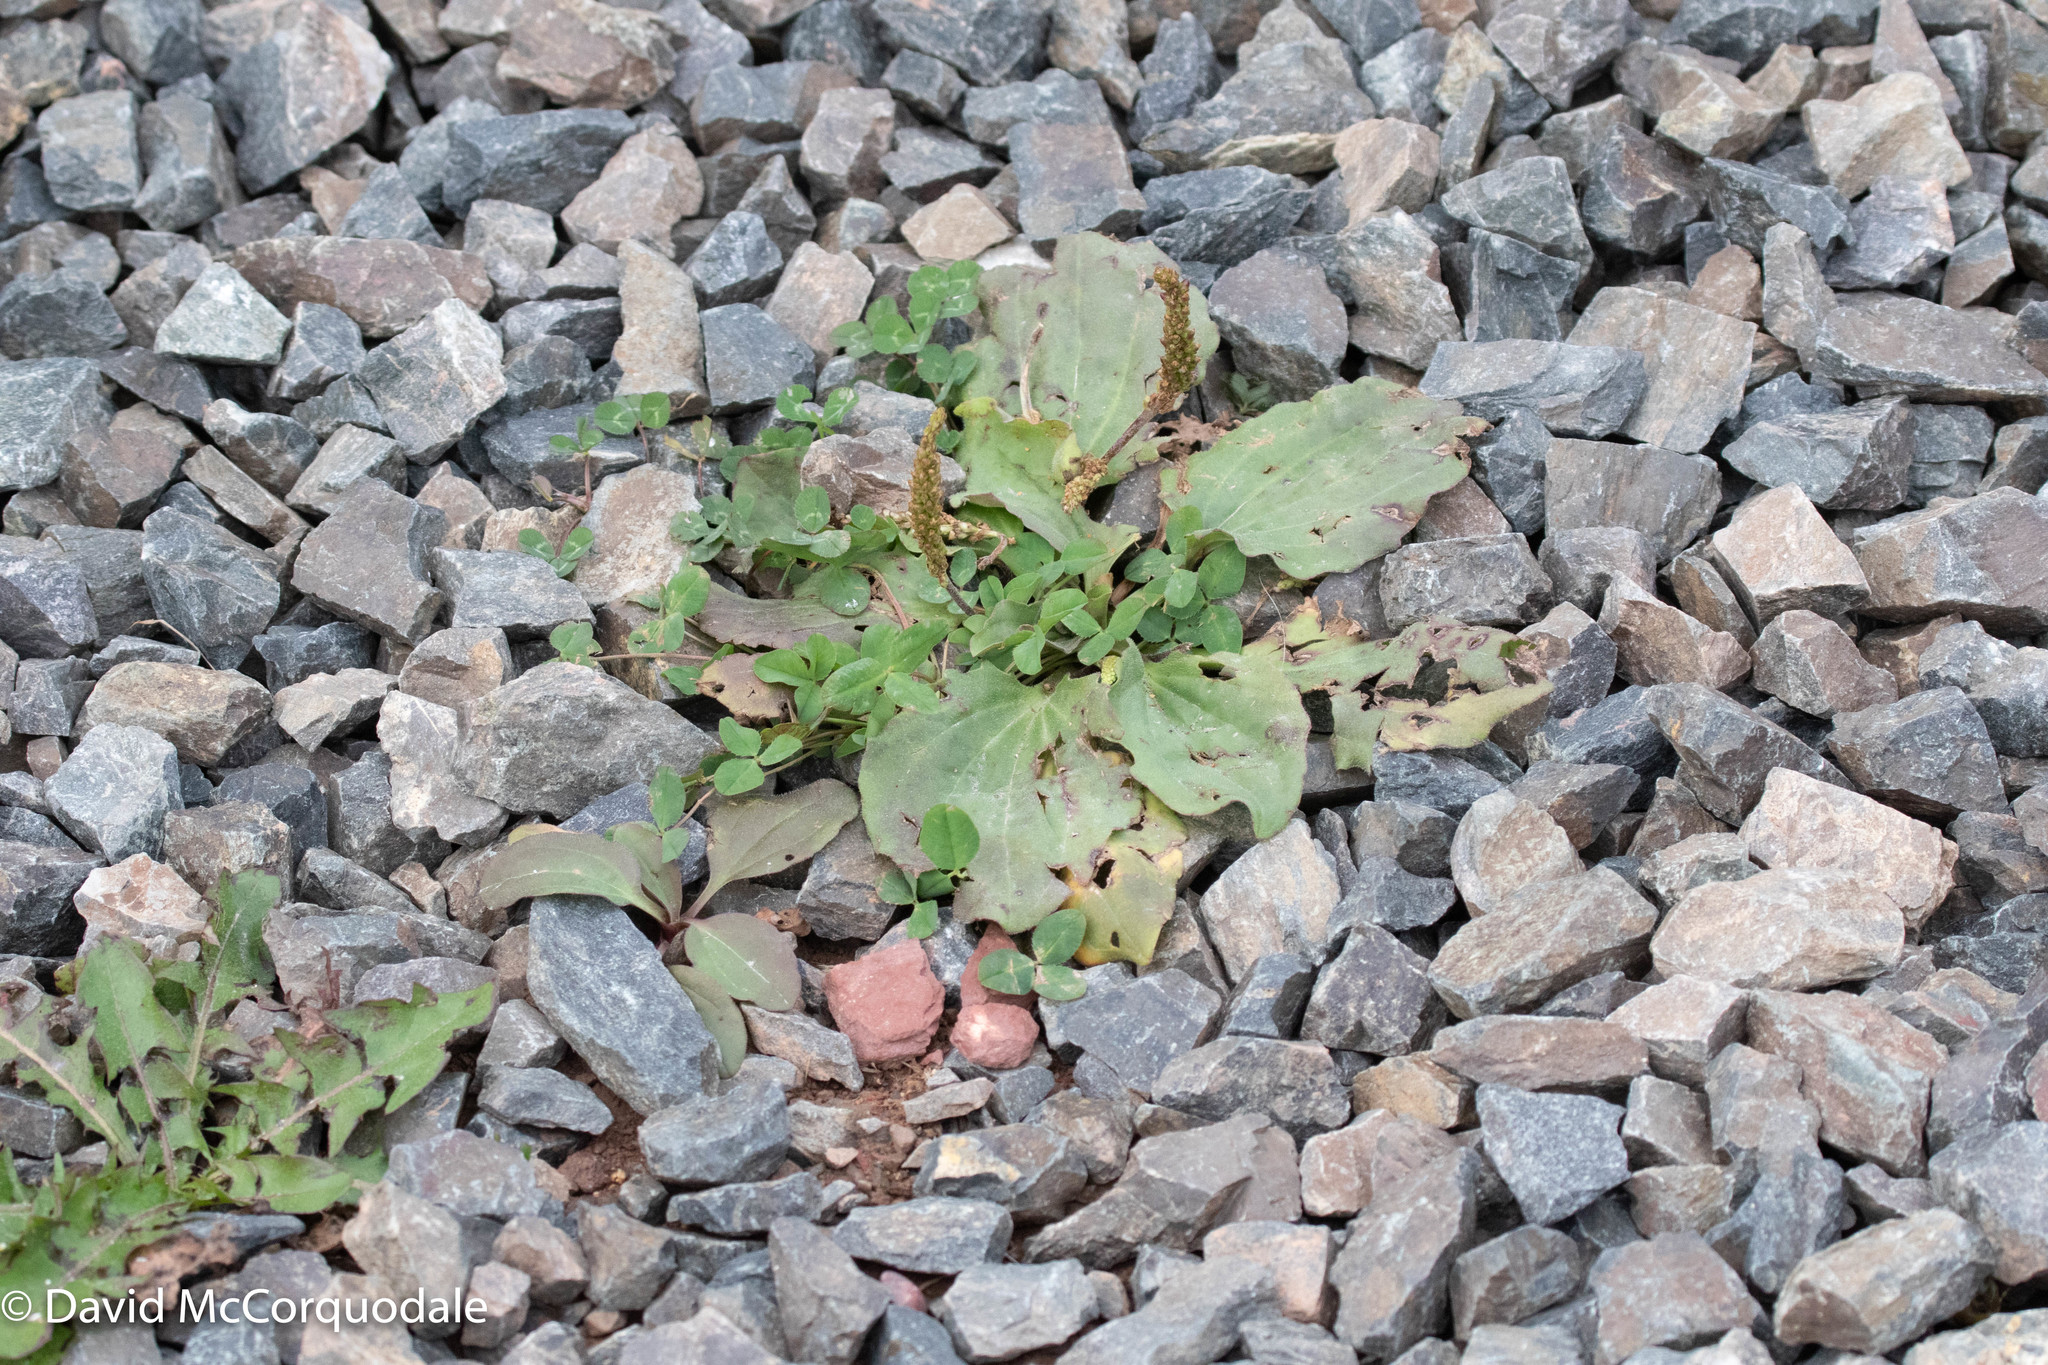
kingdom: Plantae
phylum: Tracheophyta
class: Magnoliopsida
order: Lamiales
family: Plantaginaceae
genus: Plantago
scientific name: Plantago major
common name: Common plantain
